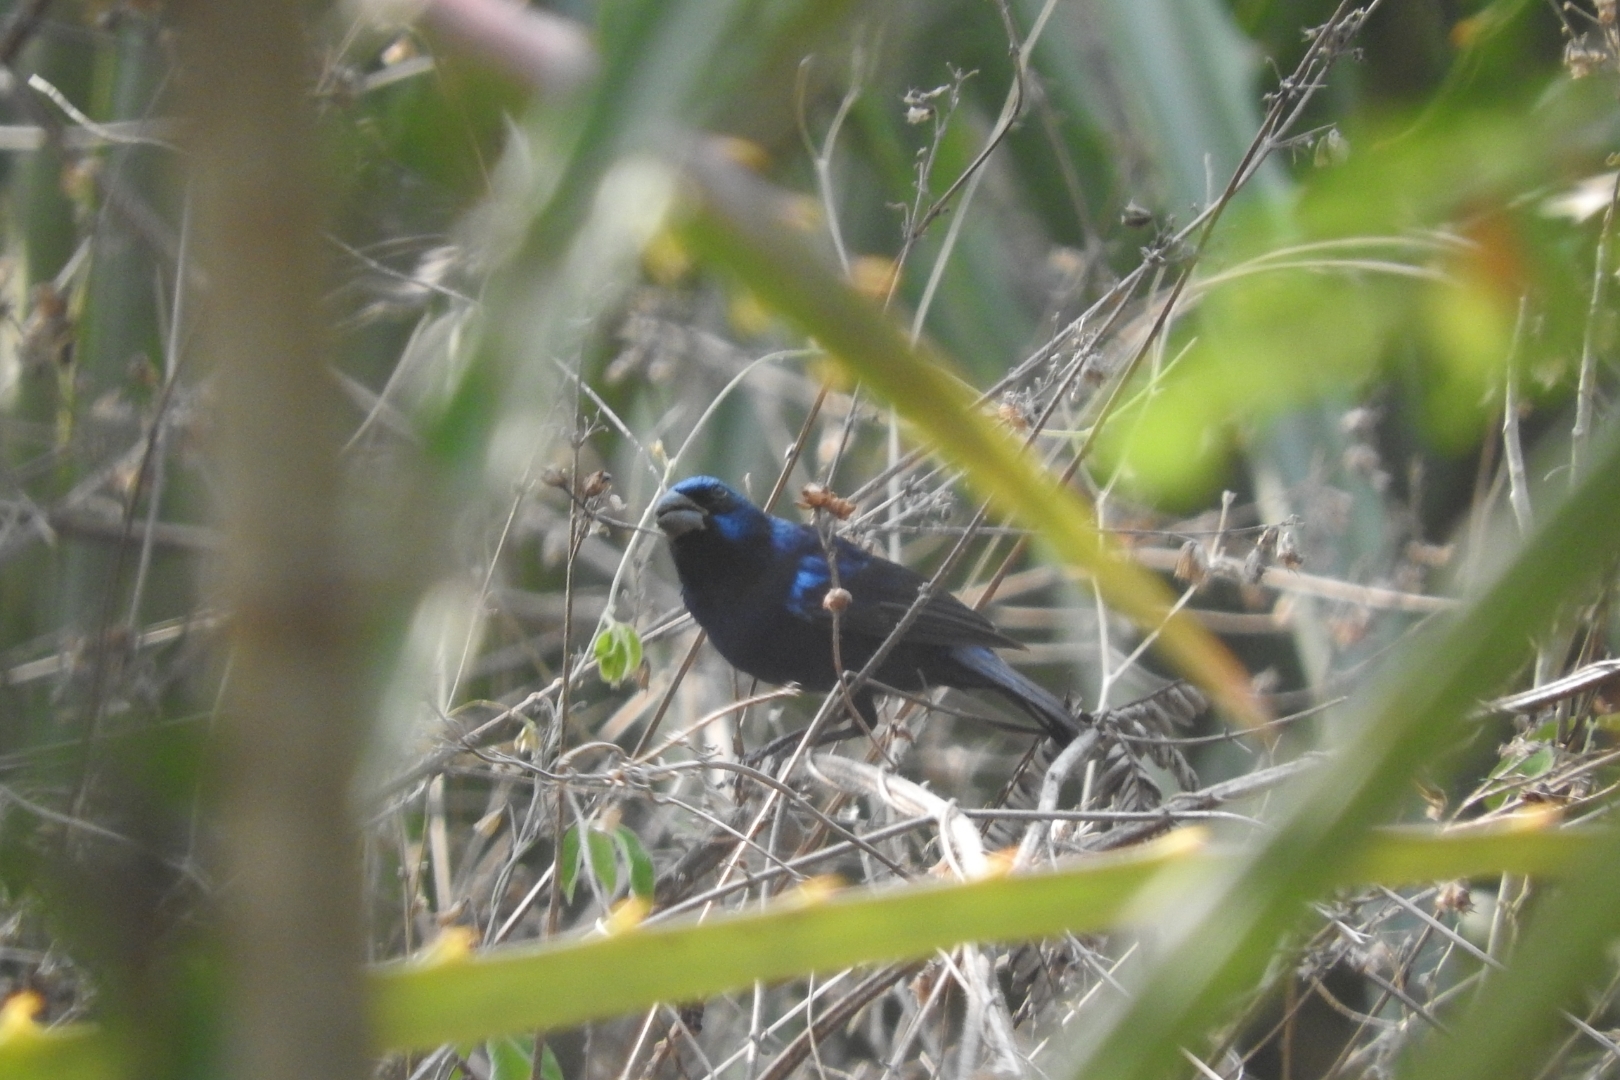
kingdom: Animalia
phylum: Chordata
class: Aves
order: Passeriformes
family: Cardinalidae
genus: Cyanocompsa
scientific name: Cyanocompsa parellina
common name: Blue bunting
